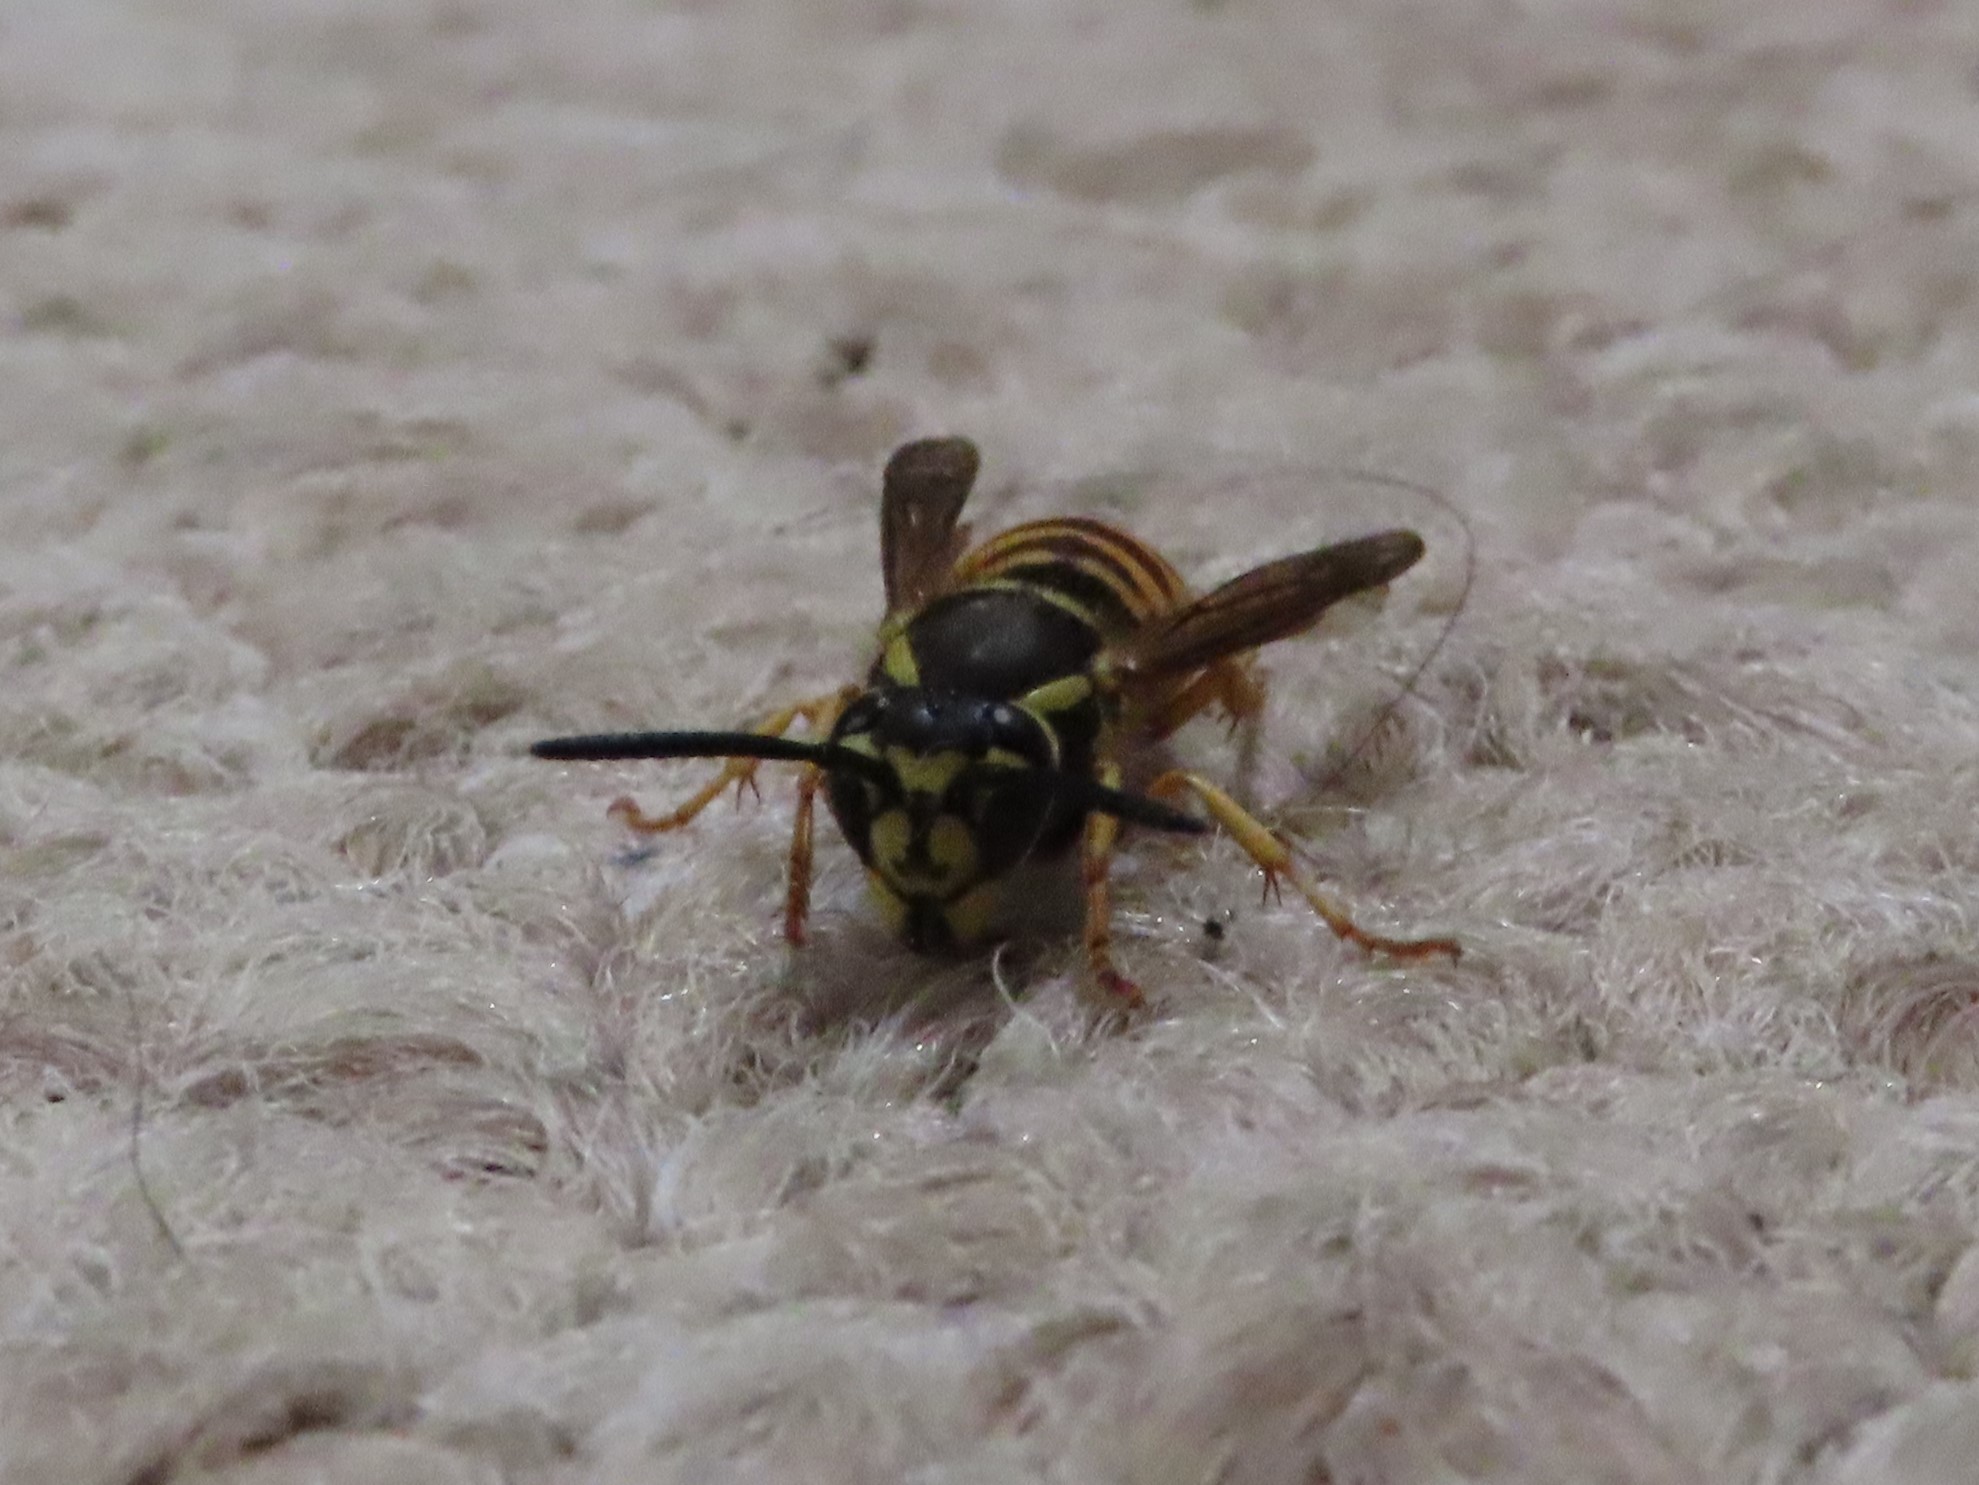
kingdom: Animalia
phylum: Arthropoda
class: Insecta
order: Hymenoptera
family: Vespidae
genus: Vespula
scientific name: Vespula maculifrons
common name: Eastern yellowjacket
